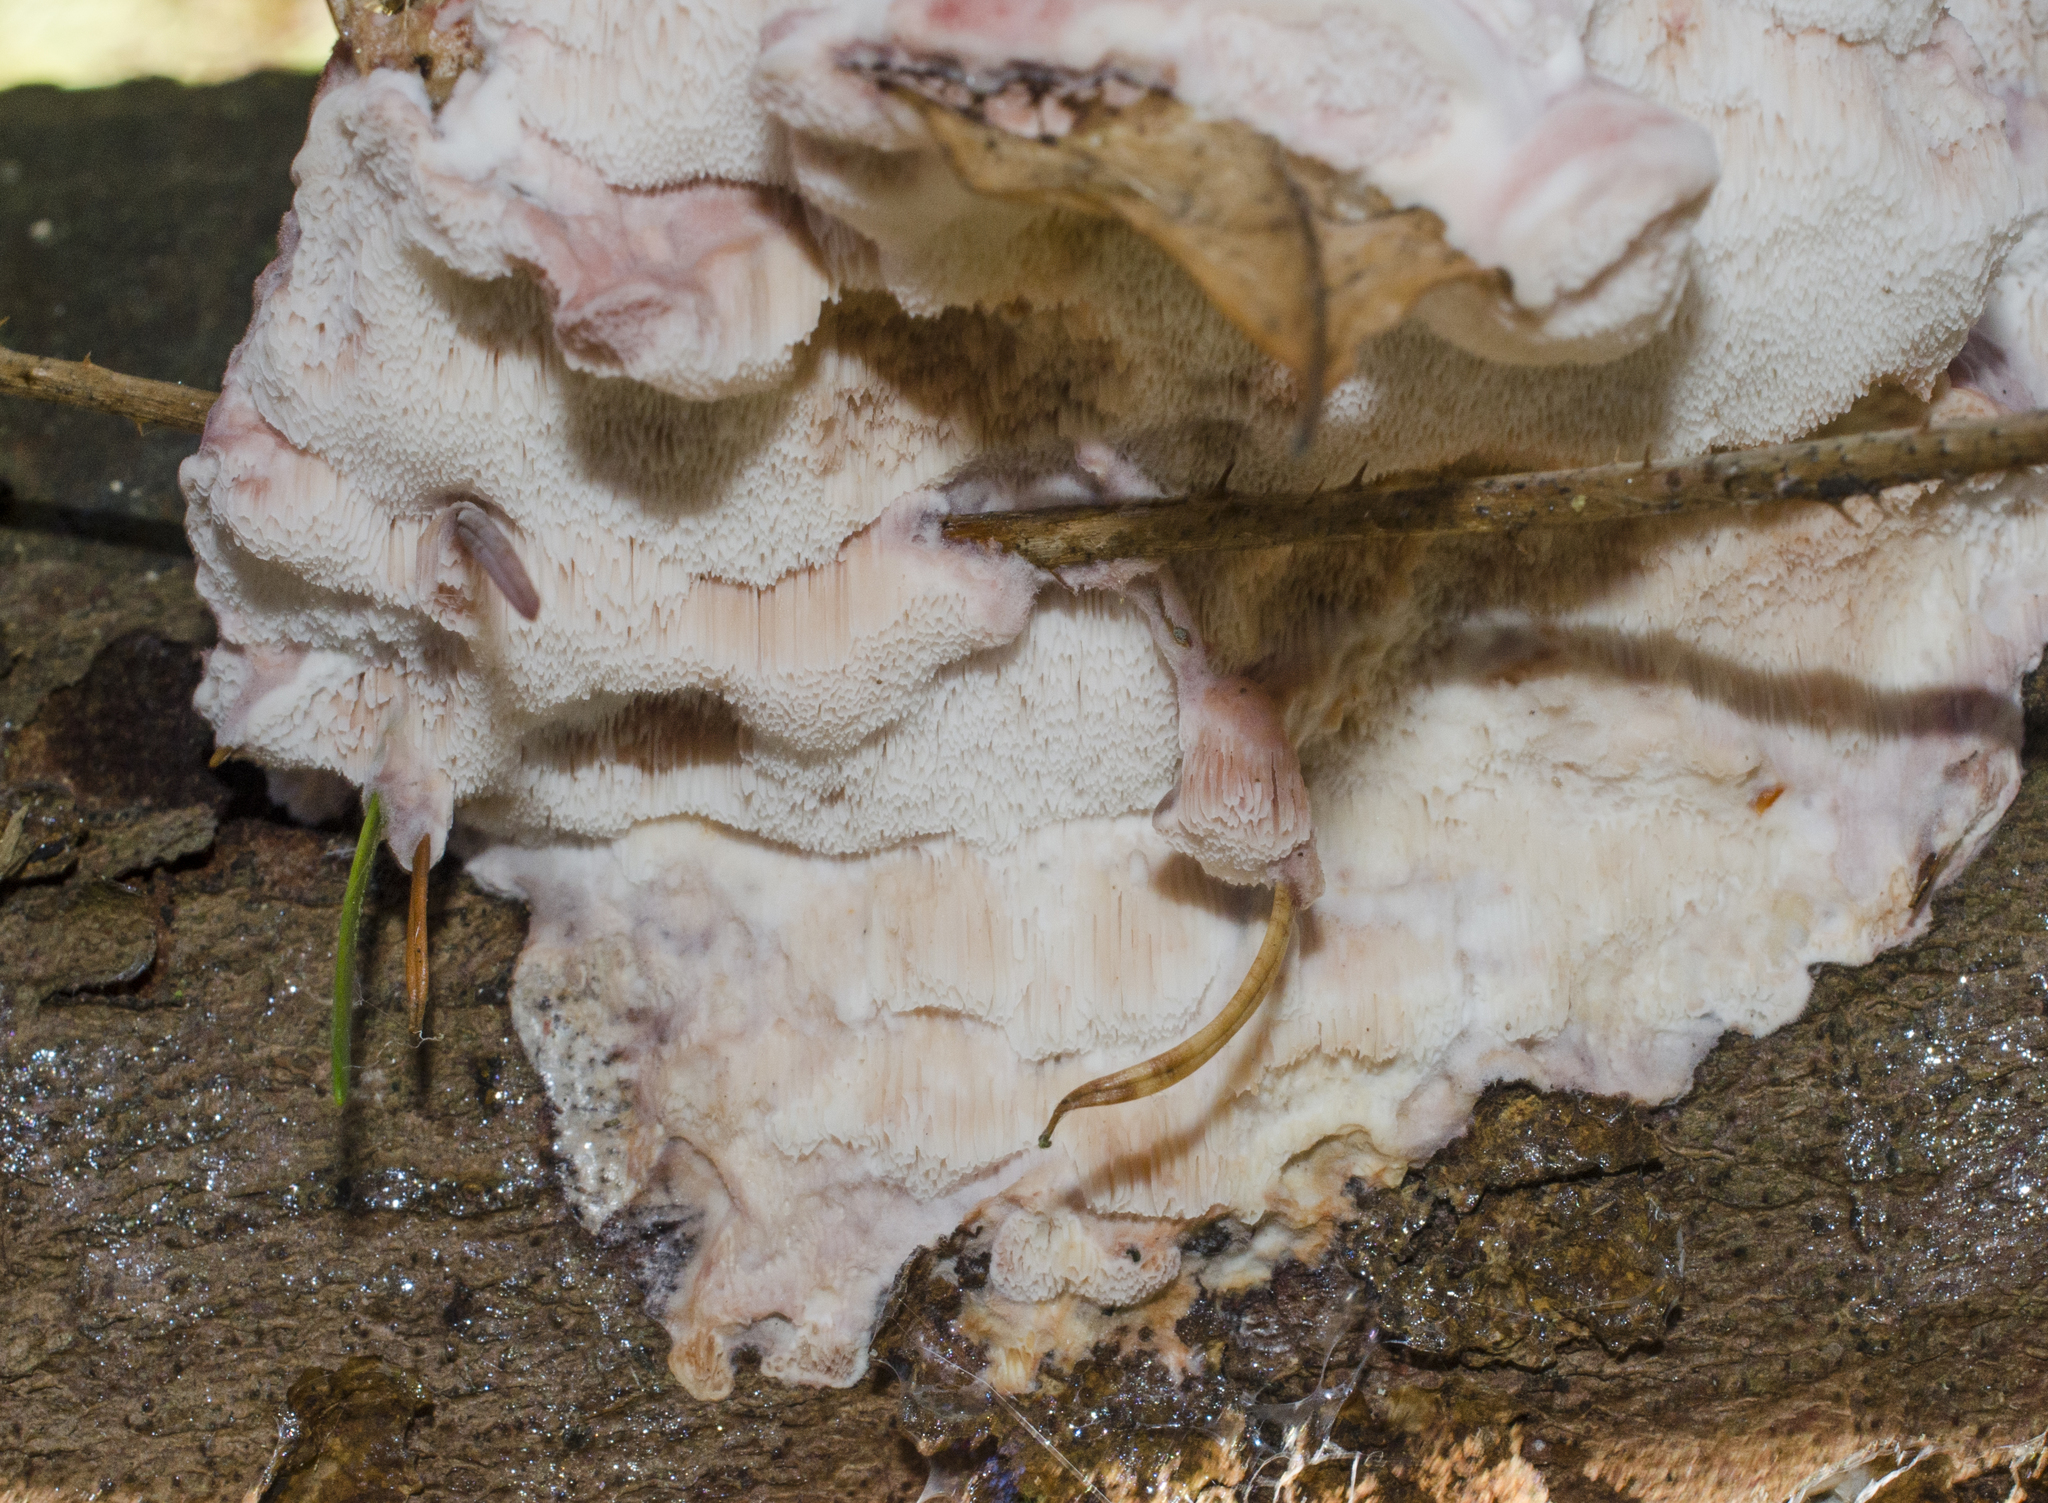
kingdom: Fungi
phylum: Basidiomycota
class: Agaricomycetes
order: Polyporales
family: Irpicaceae
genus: Leptoporus
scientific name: Leptoporus mollis
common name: Soft bracket
